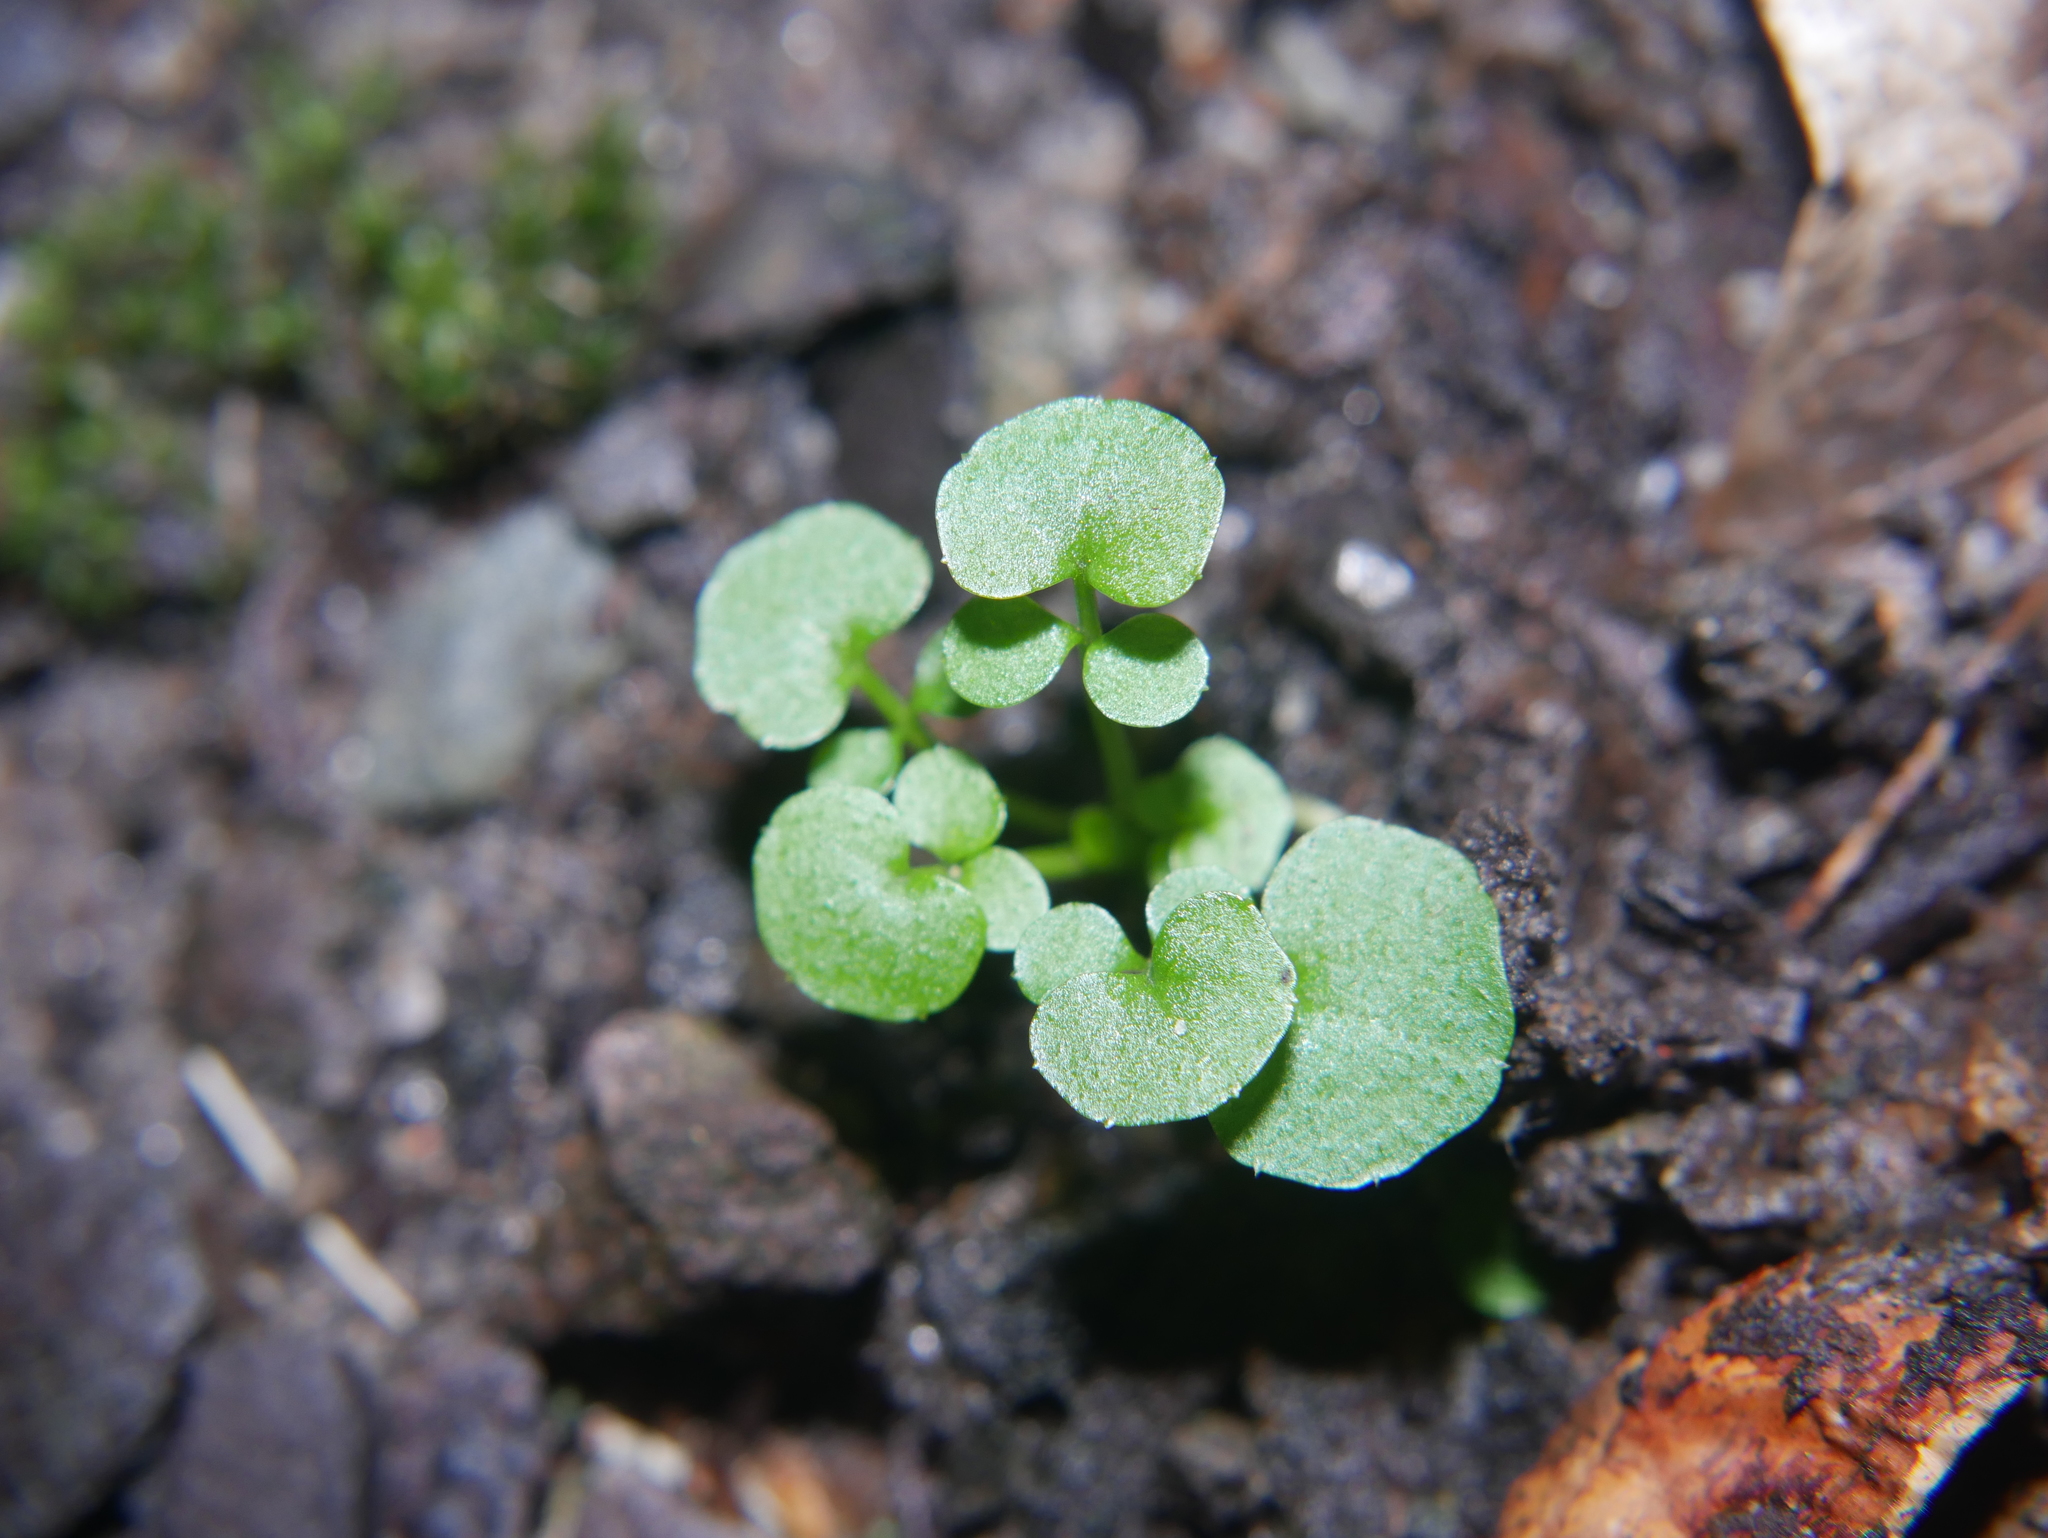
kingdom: Plantae
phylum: Tracheophyta
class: Magnoliopsida
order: Brassicales
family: Brassicaceae
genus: Cardamine
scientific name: Cardamine hirsuta
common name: Hairy bittercress
